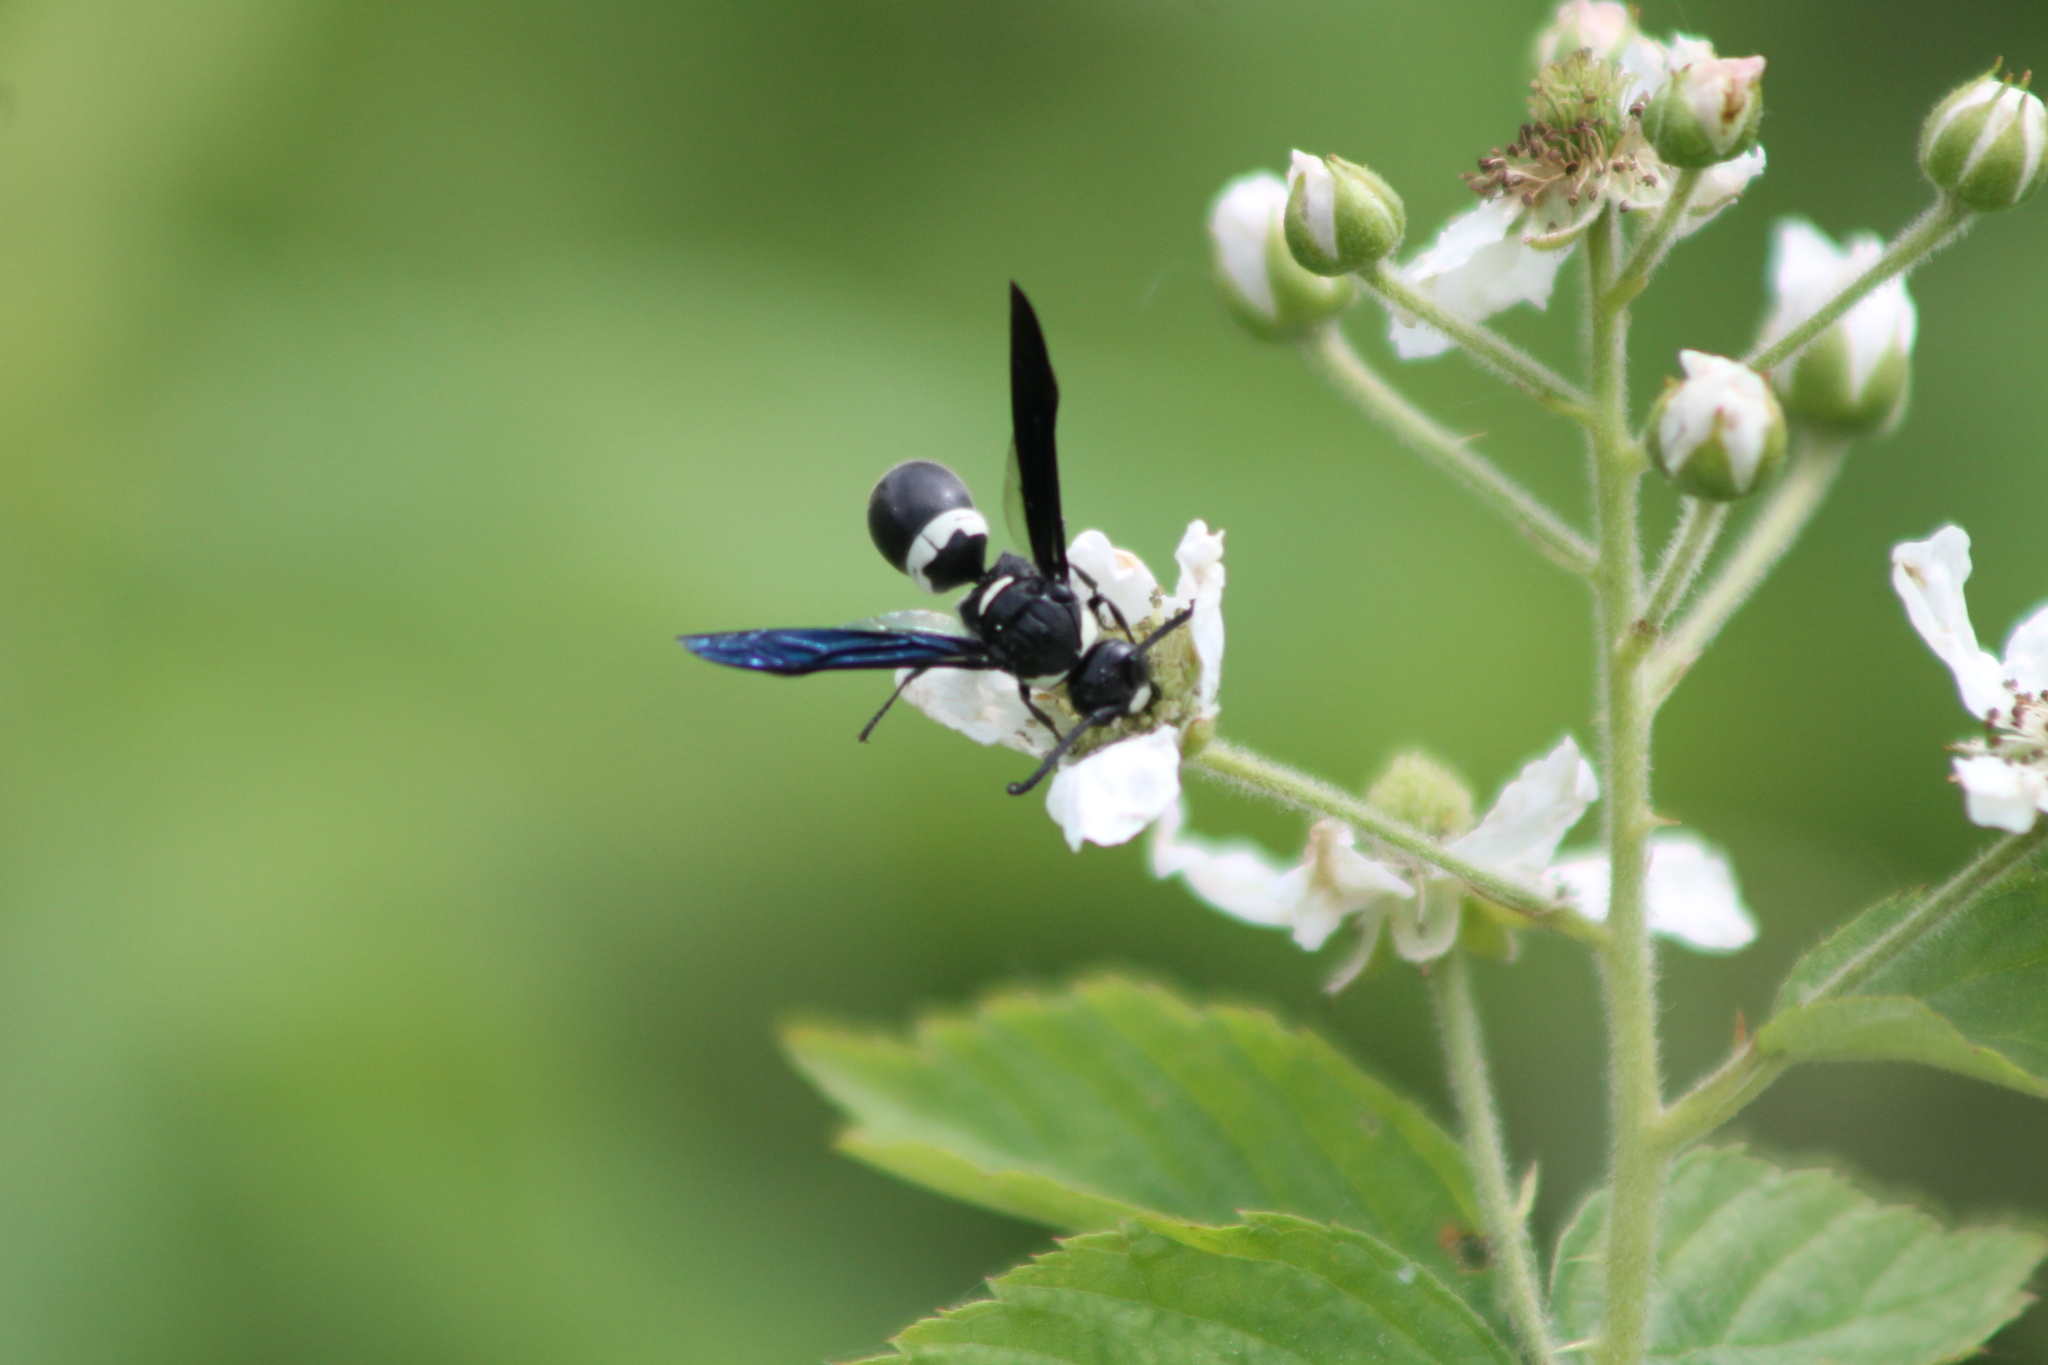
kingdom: Animalia
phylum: Arthropoda
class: Insecta
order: Hymenoptera
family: Eumenidae
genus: Monobia
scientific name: Monobia quadridens
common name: Four-toothed mason wasp
